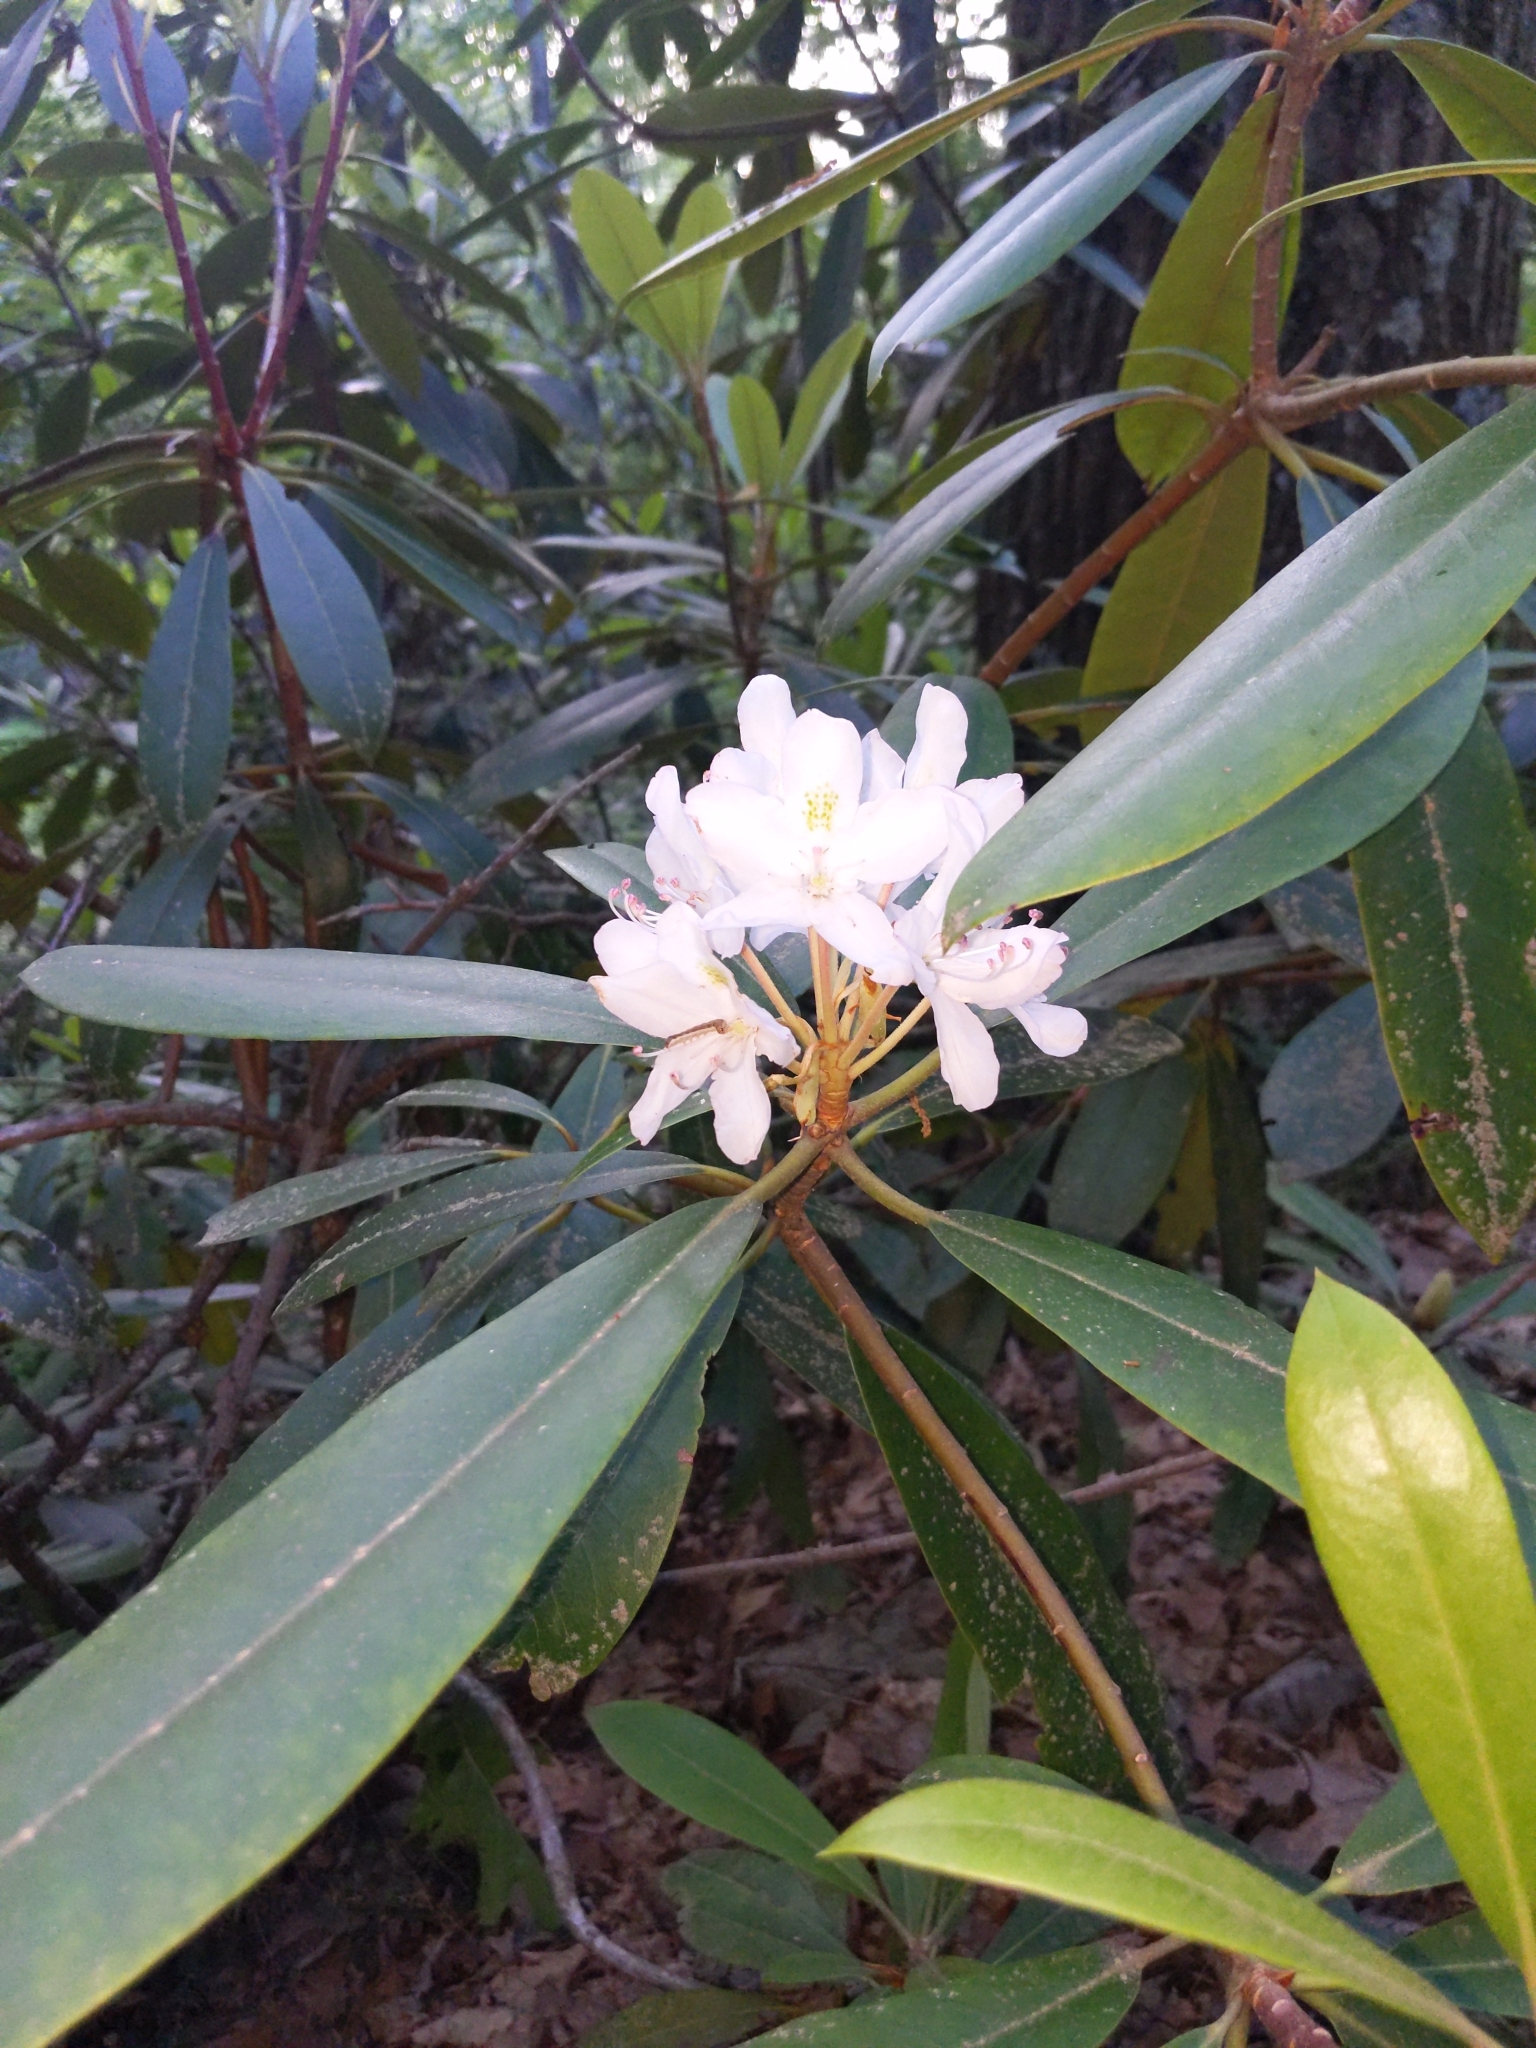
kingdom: Plantae
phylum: Tracheophyta
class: Magnoliopsida
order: Ericales
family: Ericaceae
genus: Rhododendron
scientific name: Rhododendron maximum
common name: Great rhododendron
